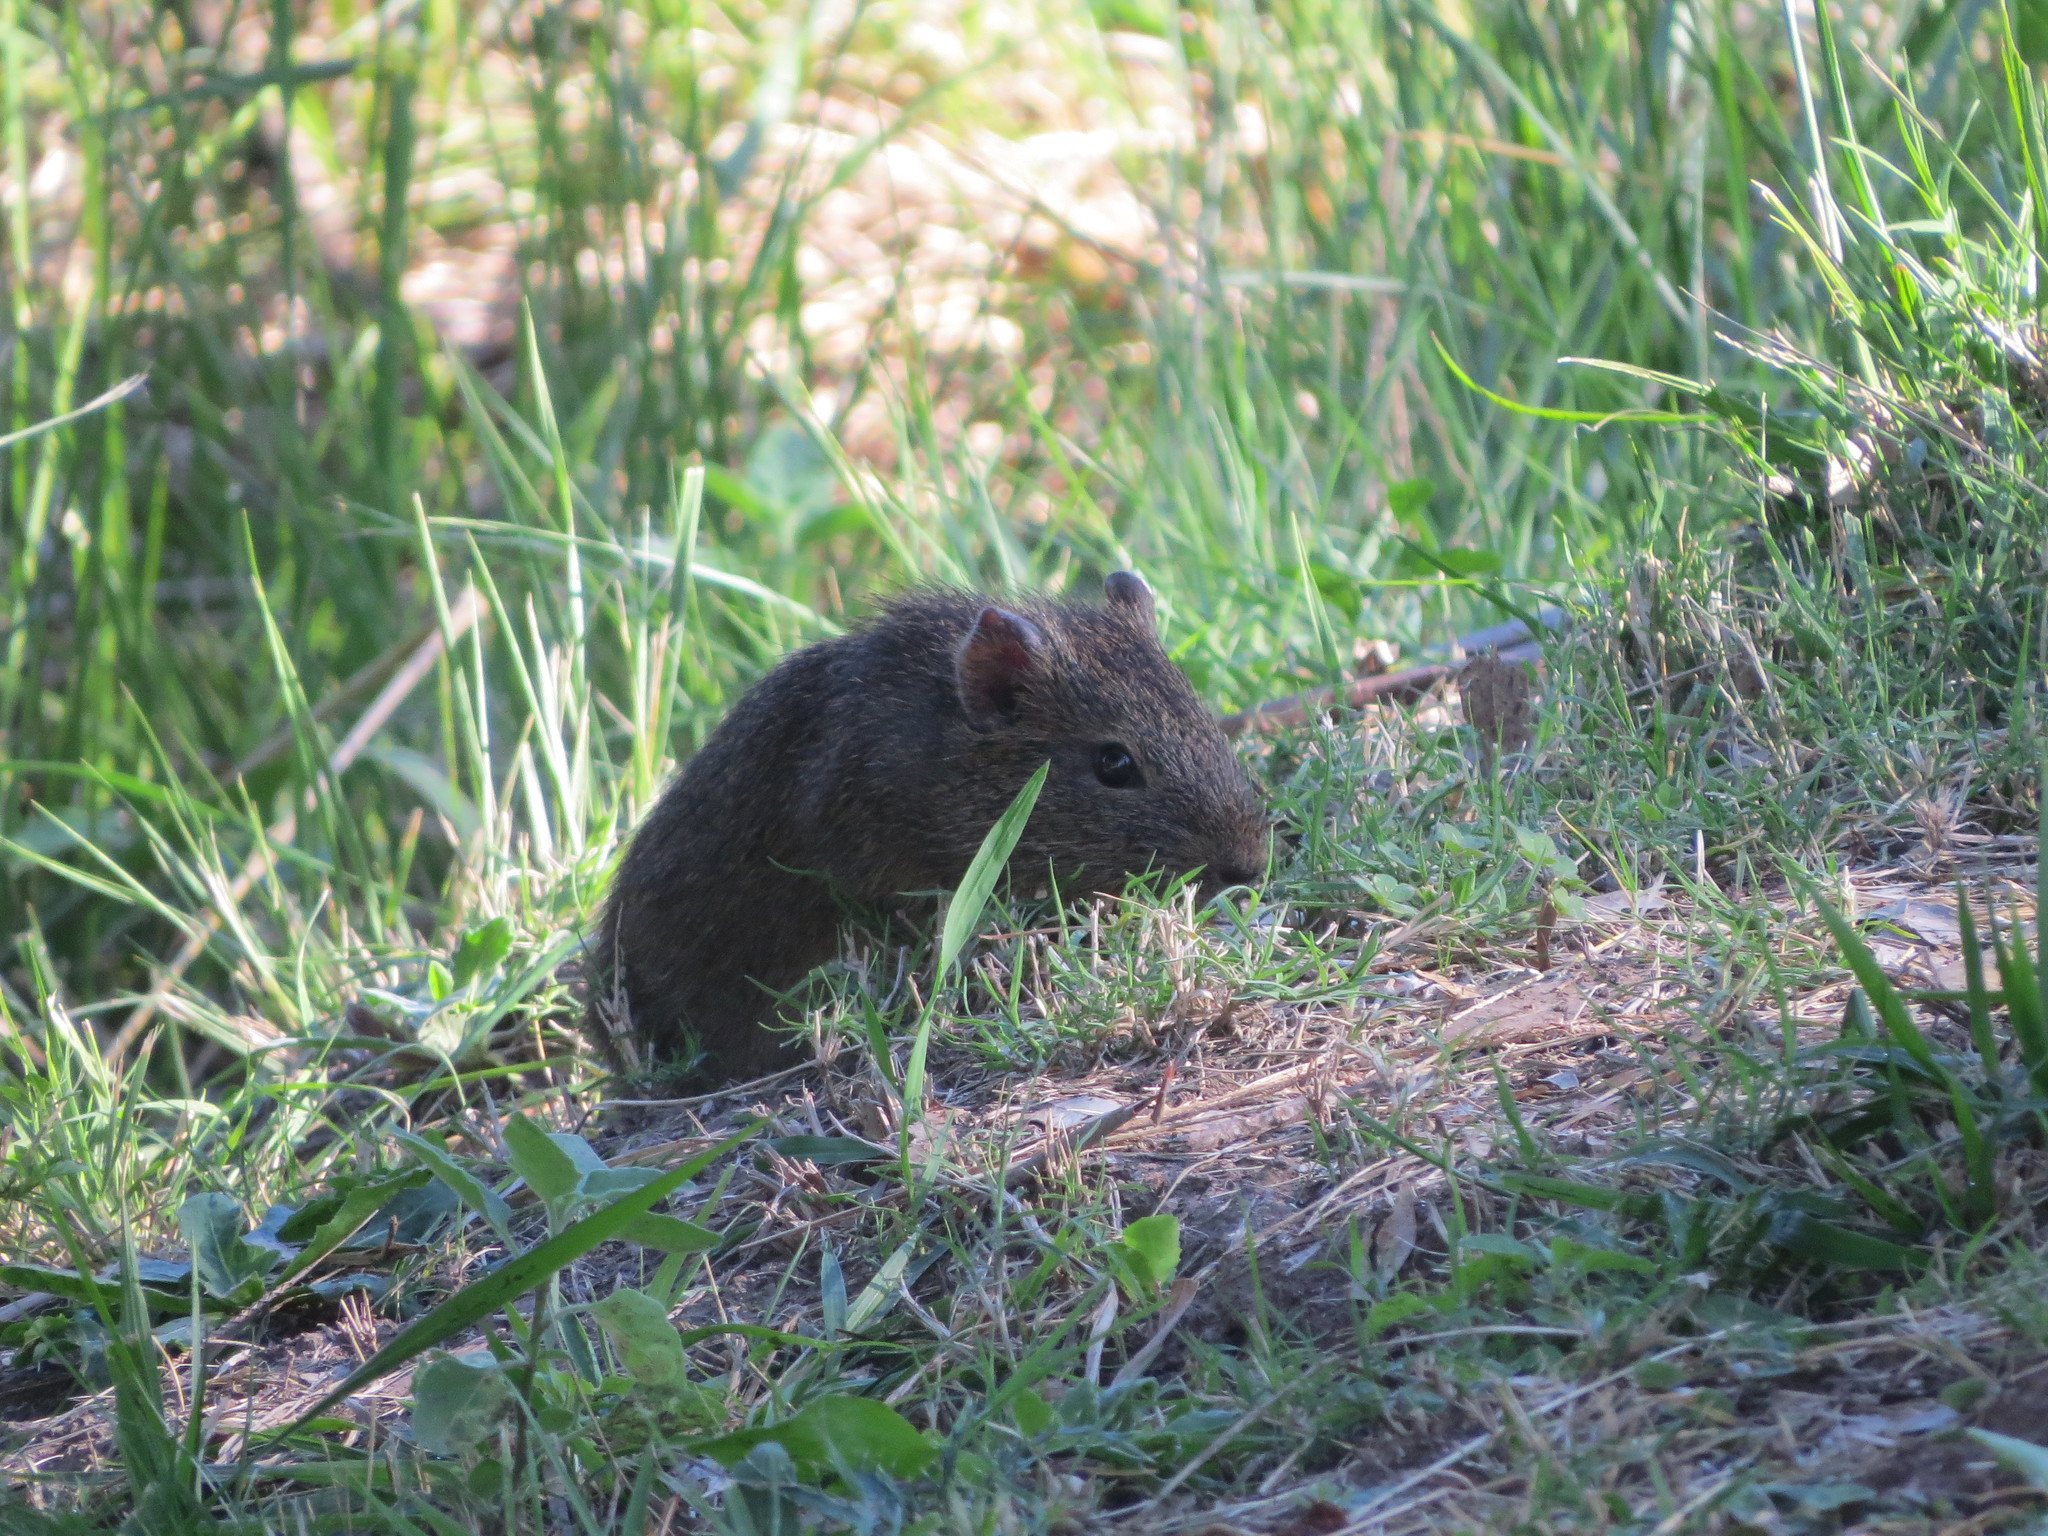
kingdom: Animalia
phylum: Chordata
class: Mammalia
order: Rodentia
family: Caviidae
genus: Cavia
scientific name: Cavia aperea
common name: Brazilian guinea pig
